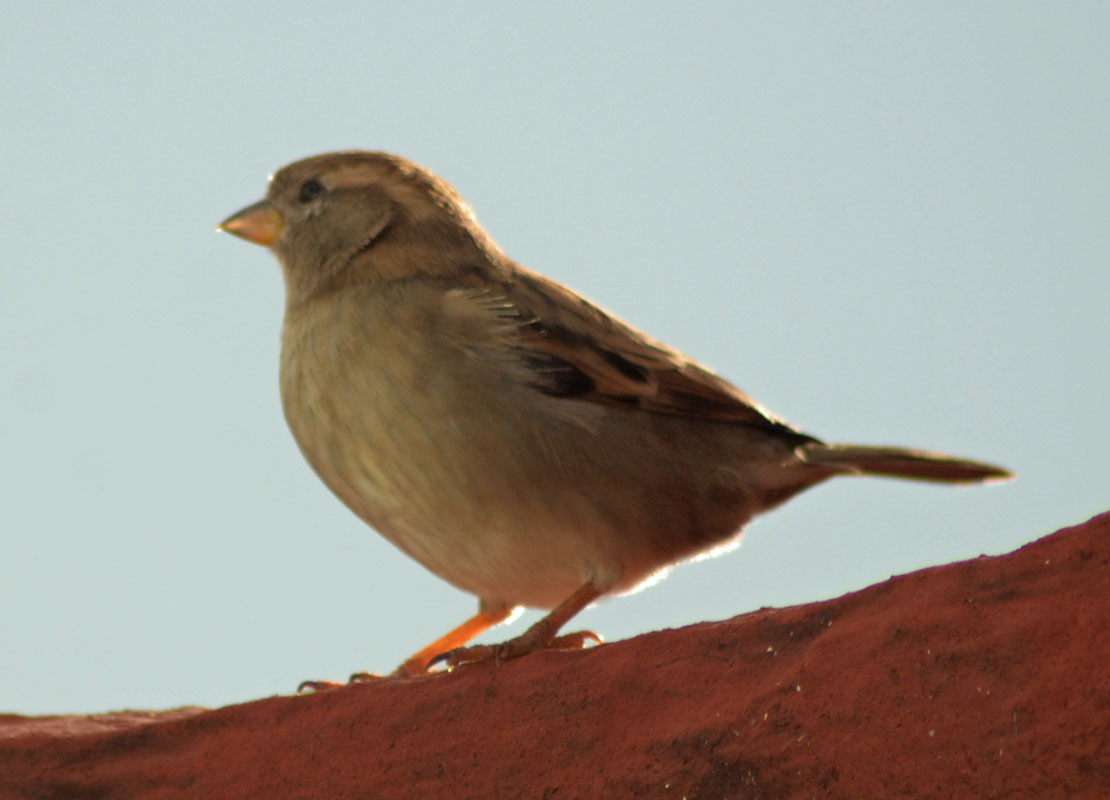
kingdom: Animalia
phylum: Chordata
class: Aves
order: Passeriformes
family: Passeridae
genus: Passer
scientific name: Passer domesticus
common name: House sparrow
